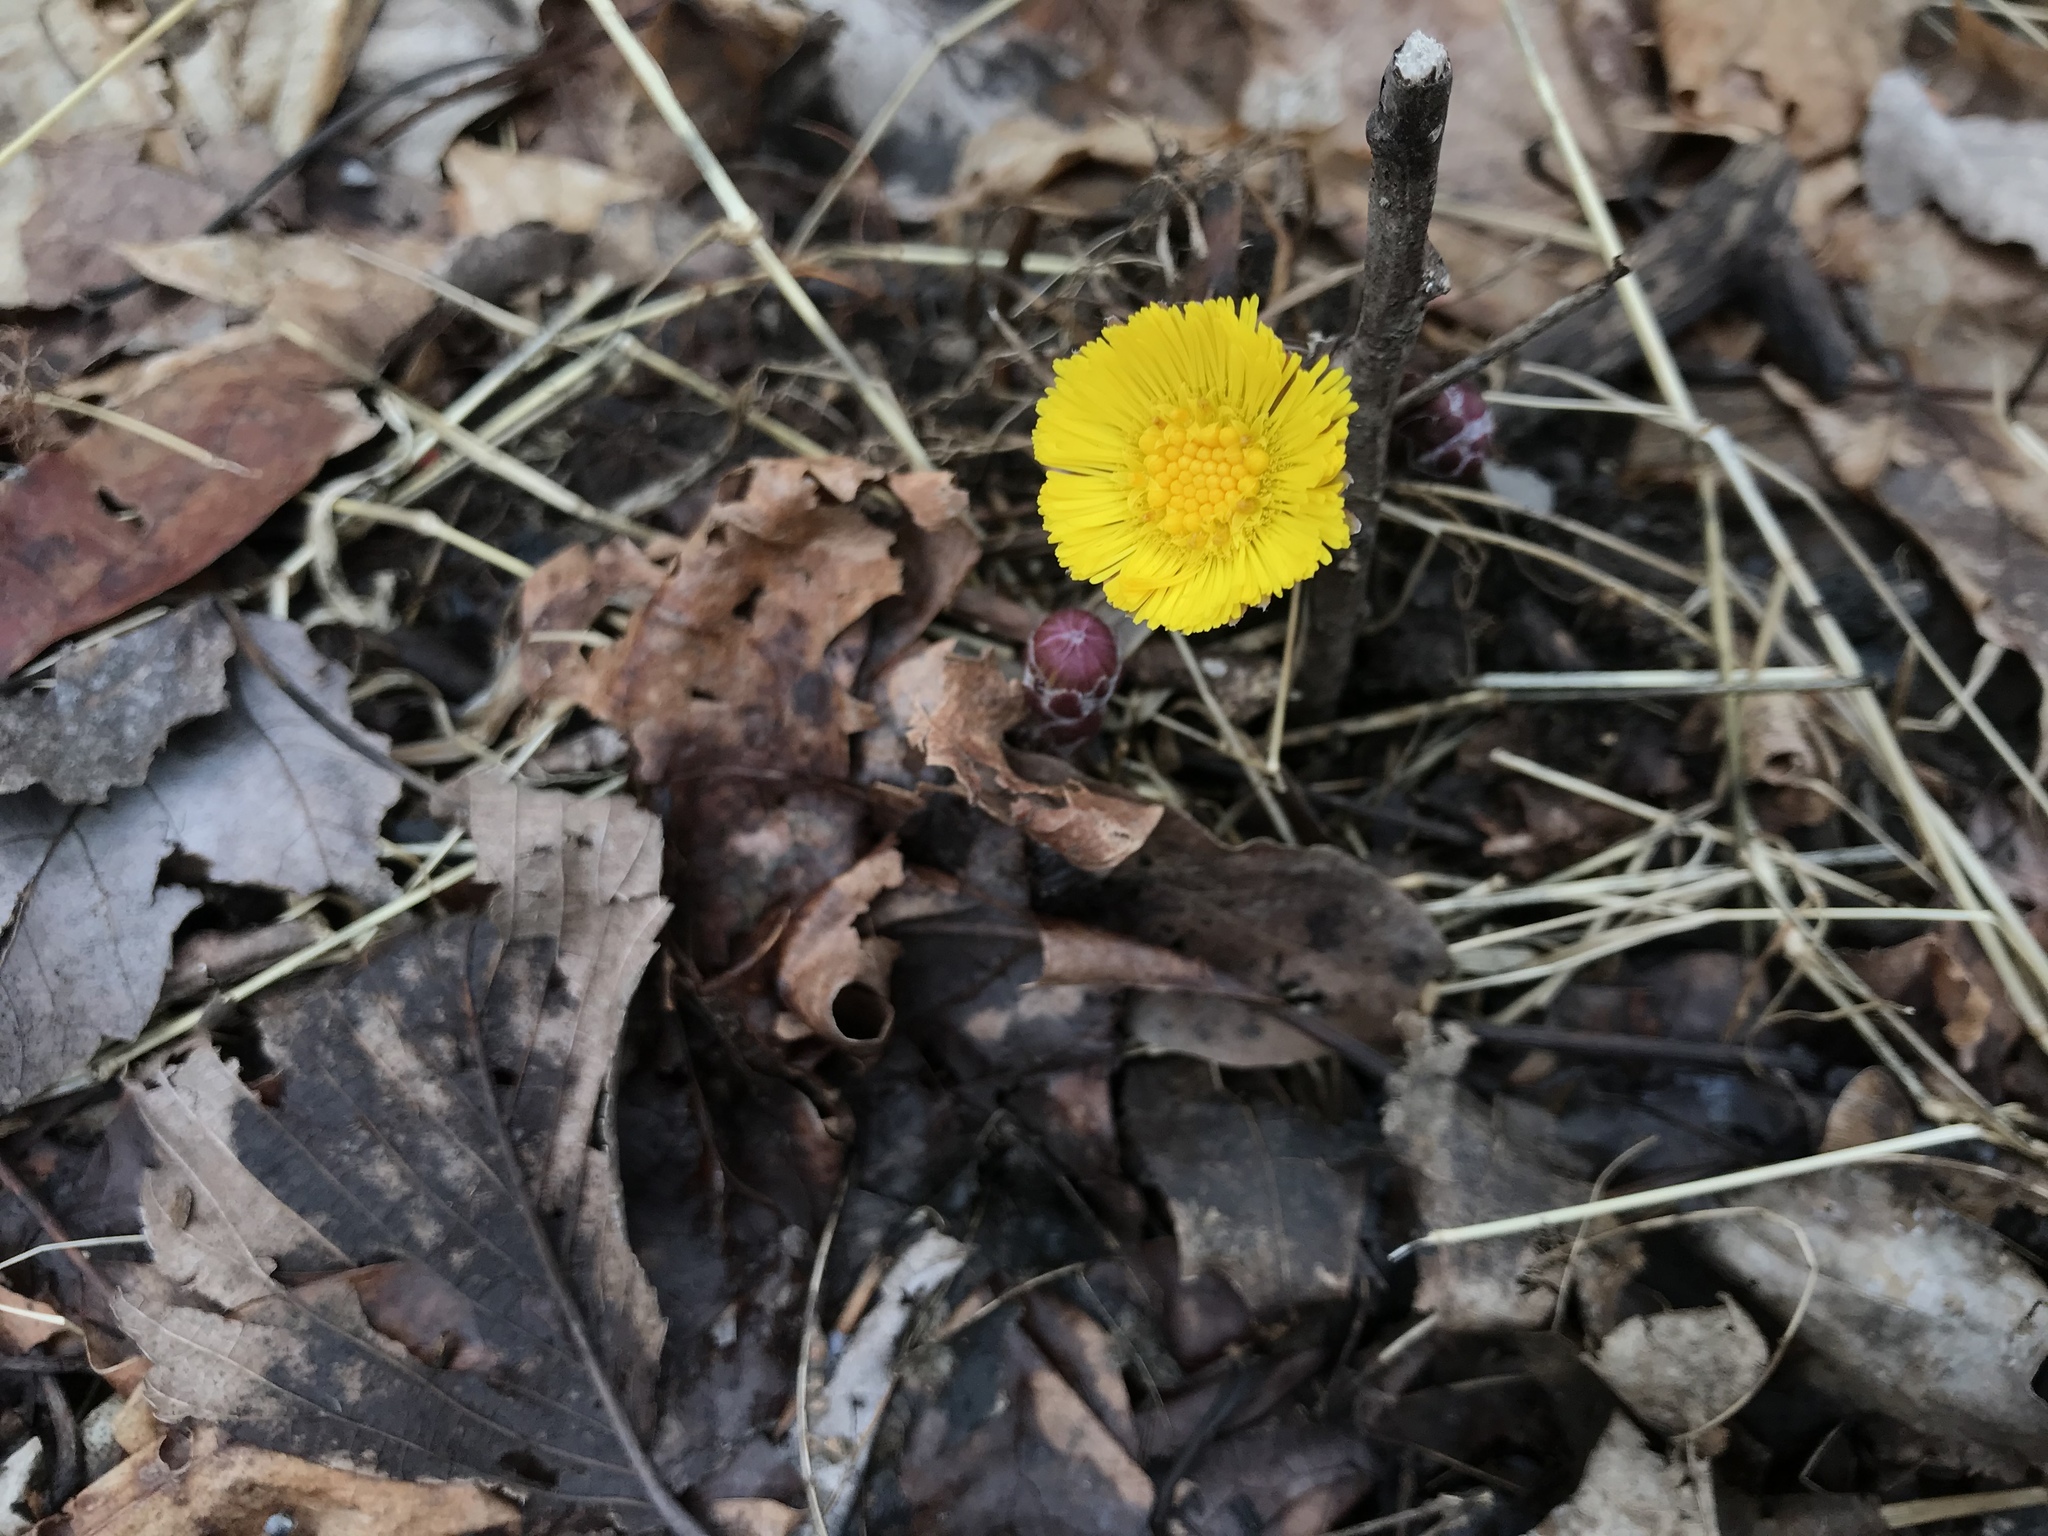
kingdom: Plantae
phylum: Tracheophyta
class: Magnoliopsida
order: Asterales
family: Asteraceae
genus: Tussilago
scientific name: Tussilago farfara
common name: Coltsfoot
